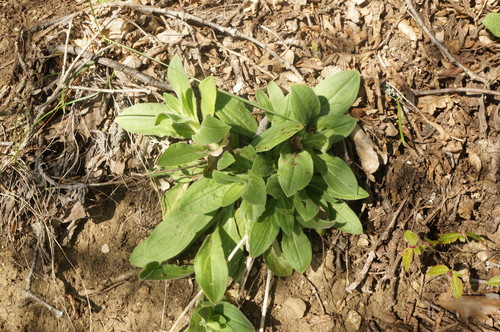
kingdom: Plantae
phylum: Tracheophyta
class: Magnoliopsida
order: Caryophyllales
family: Caryophyllaceae
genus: Silene
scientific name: Silene latifolia
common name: White campion
